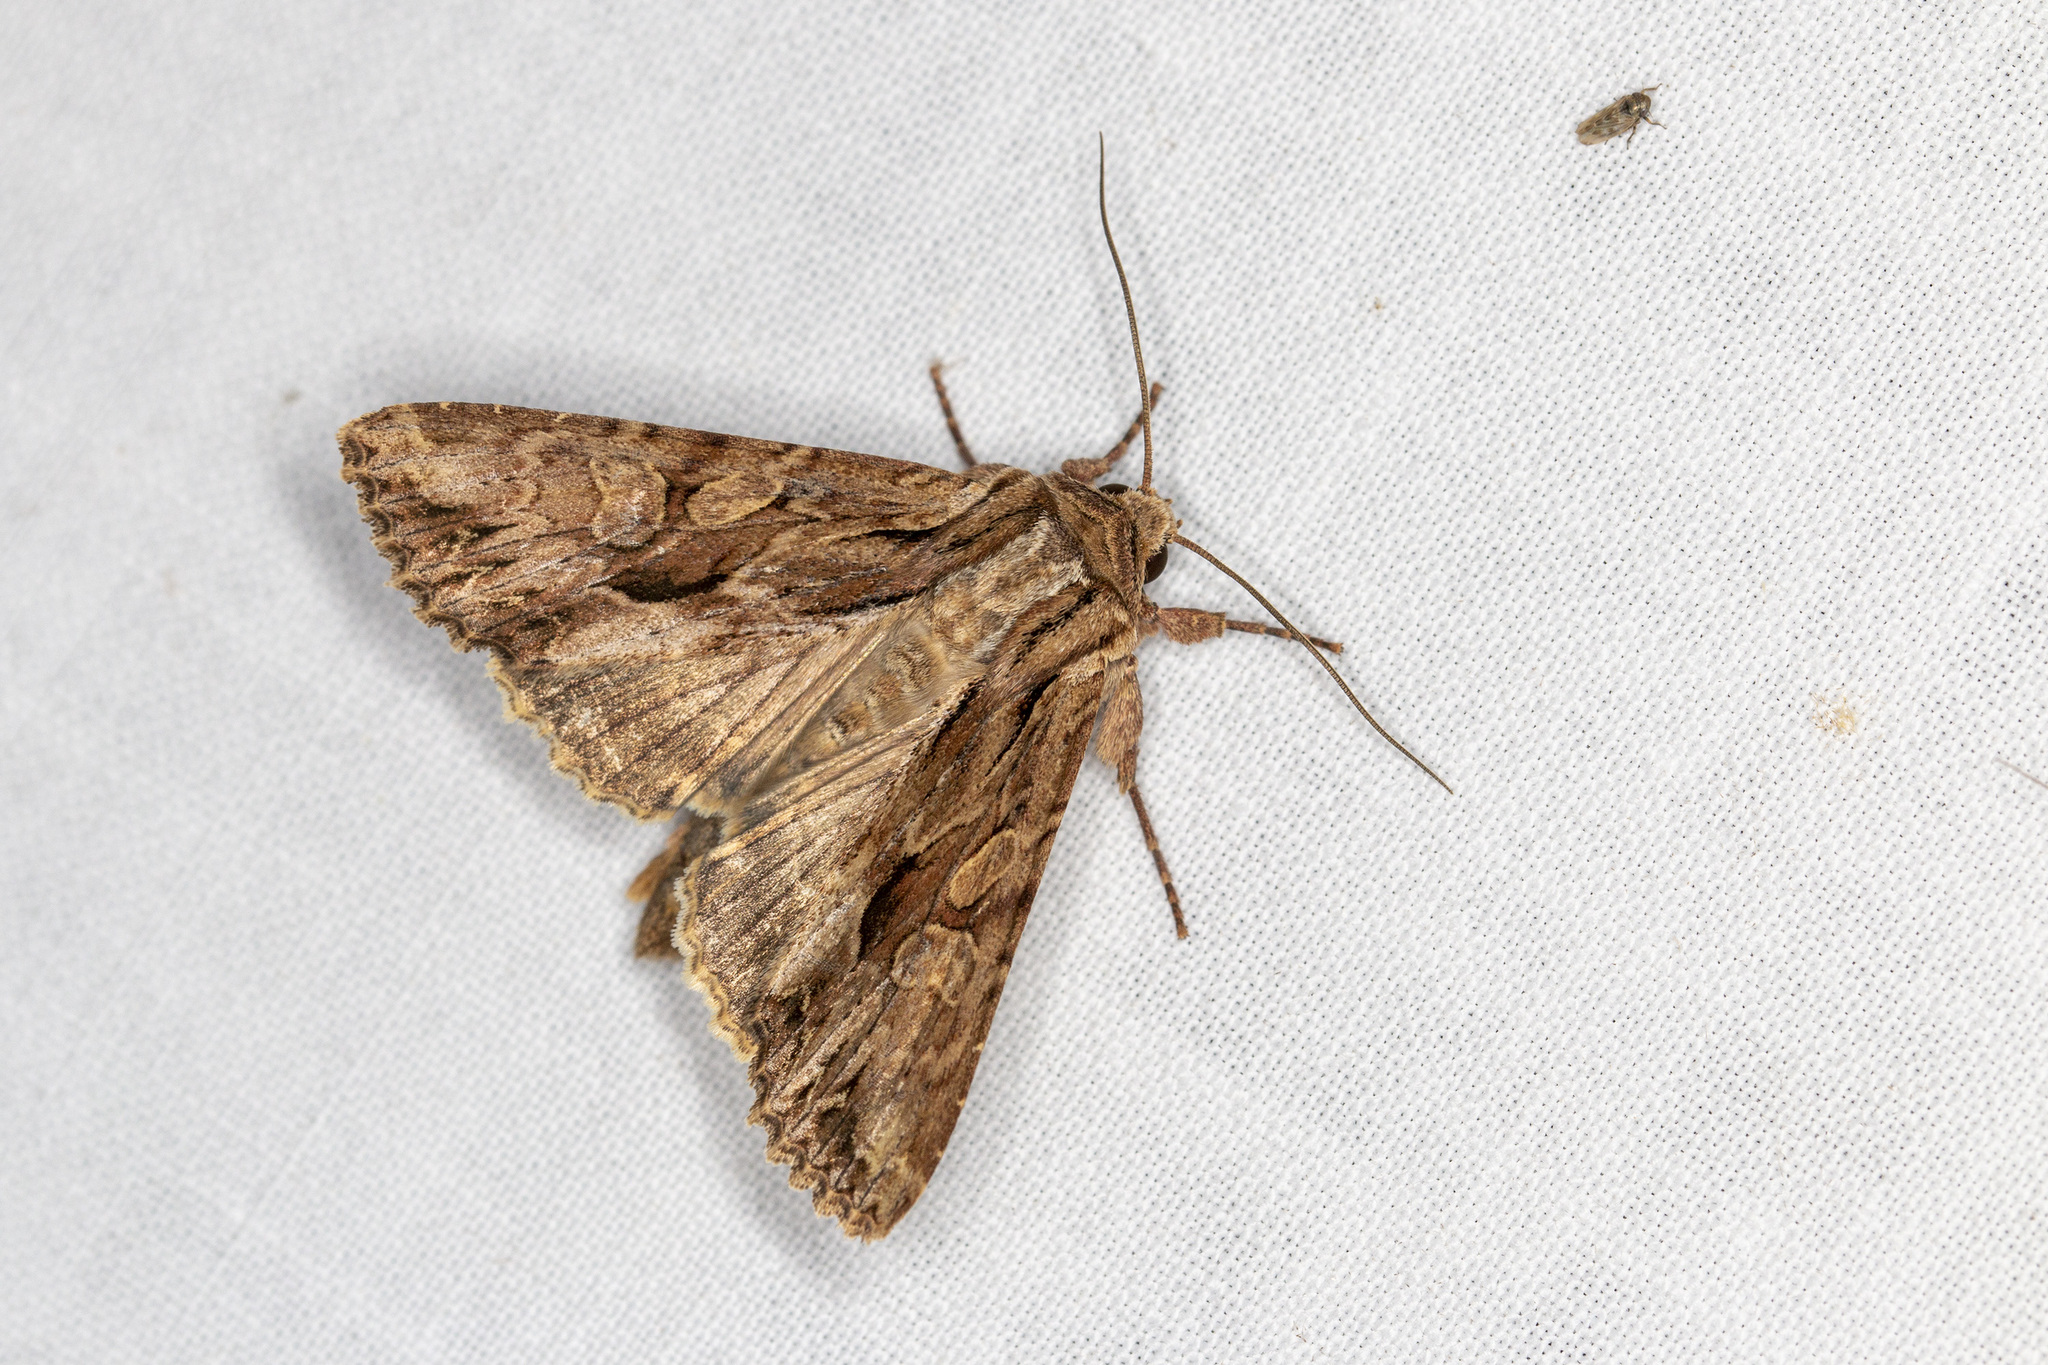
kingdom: Animalia
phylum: Arthropoda
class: Insecta
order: Lepidoptera
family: Noctuidae
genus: Apamea
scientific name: Apamea monoglypha
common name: Dark arches
